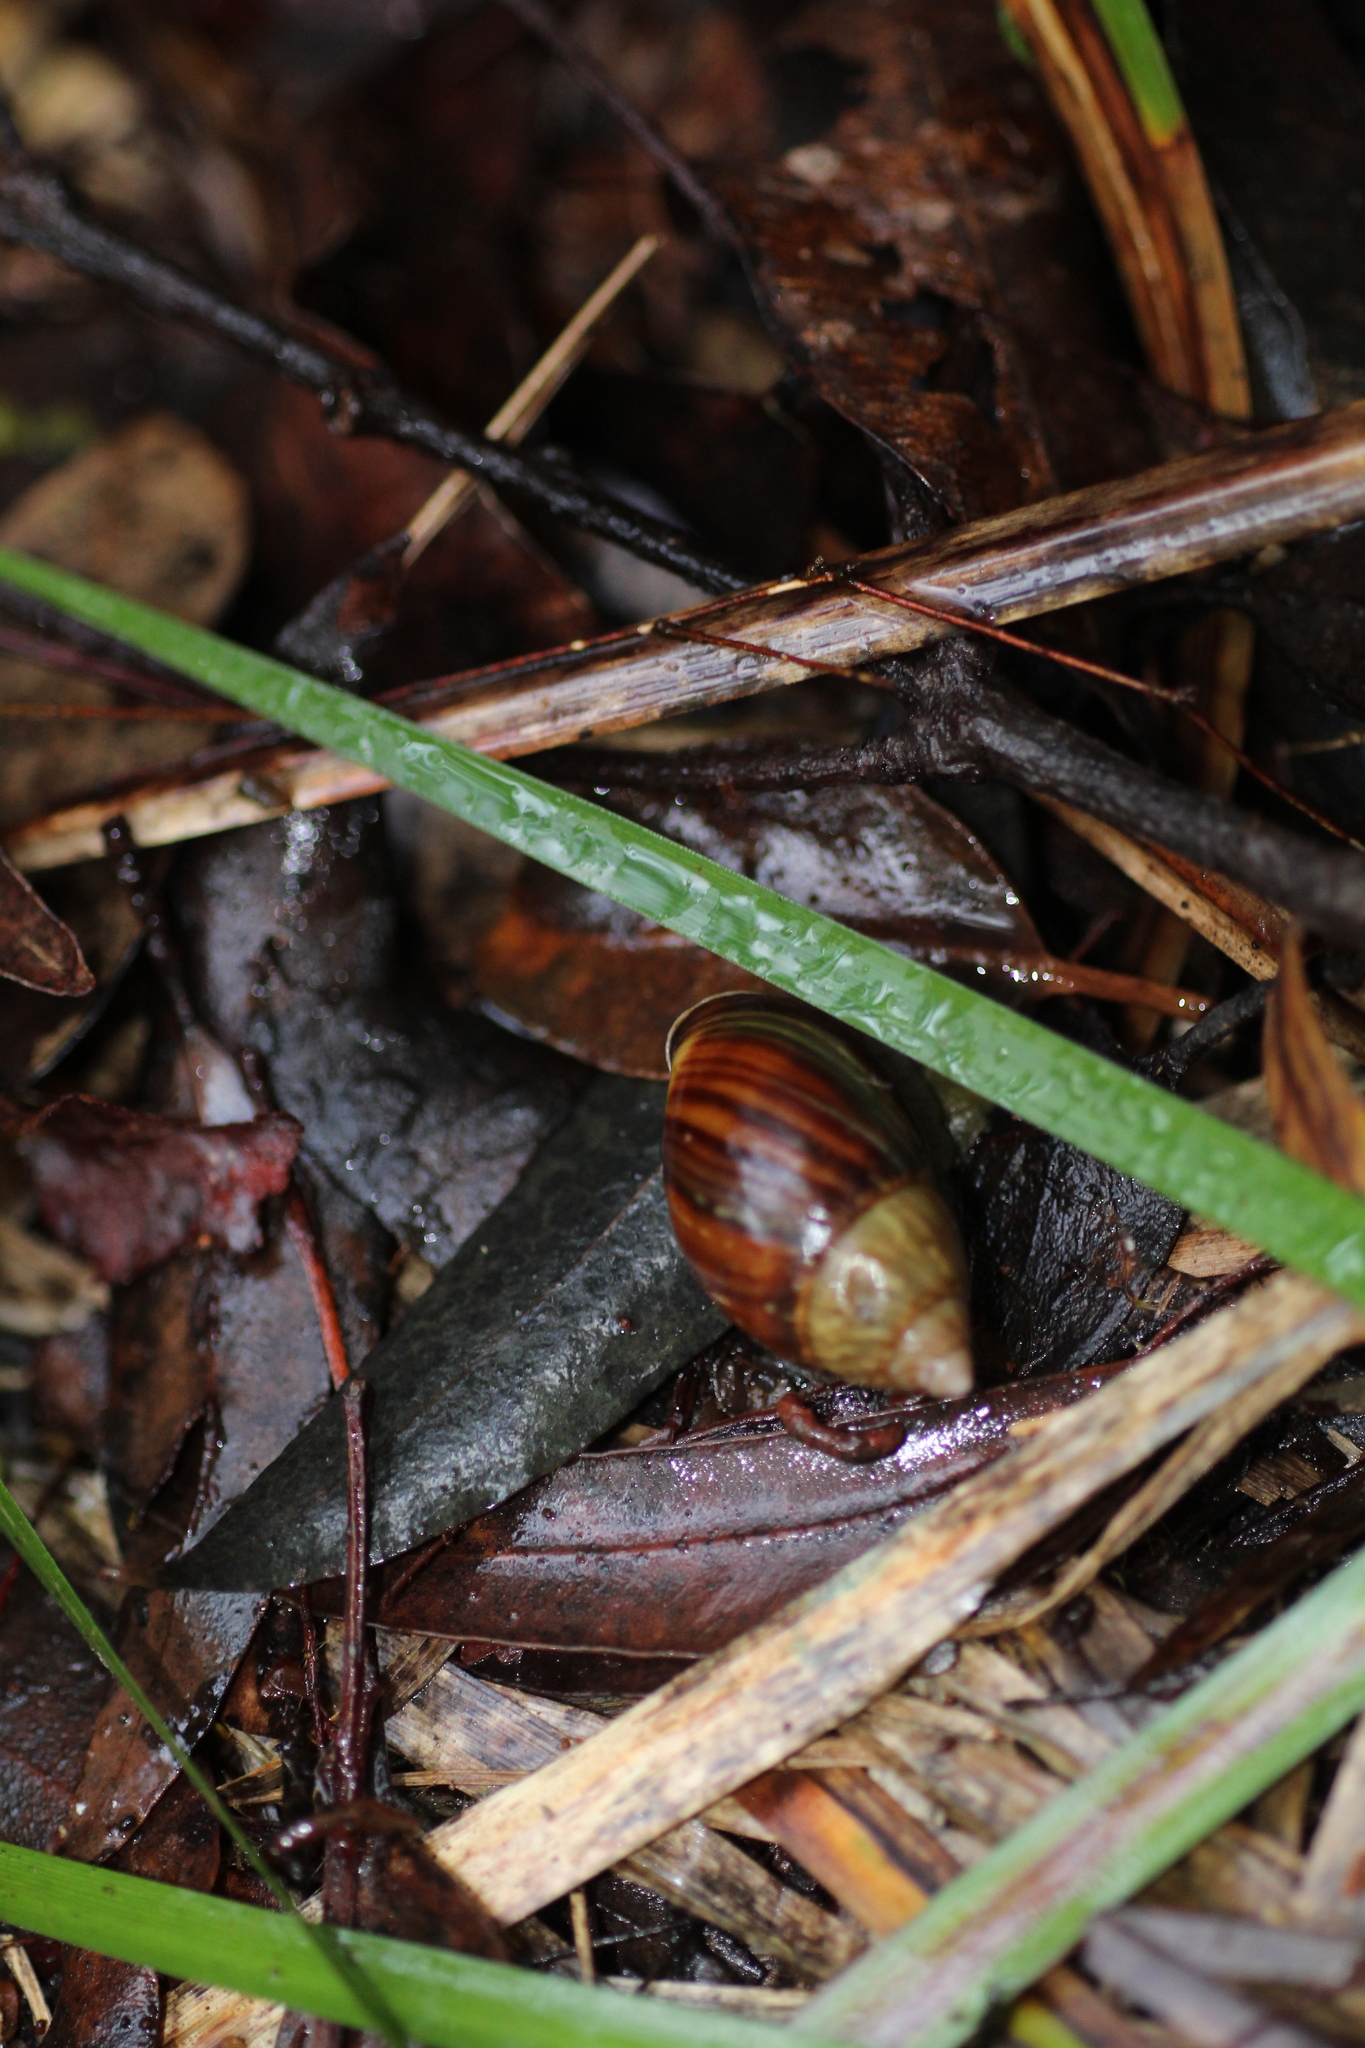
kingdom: Animalia
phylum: Mollusca
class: Gastropoda
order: Stylommatophora
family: Bothriembryontidae
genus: Bothriembryon
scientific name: Bothriembryon fuscus
